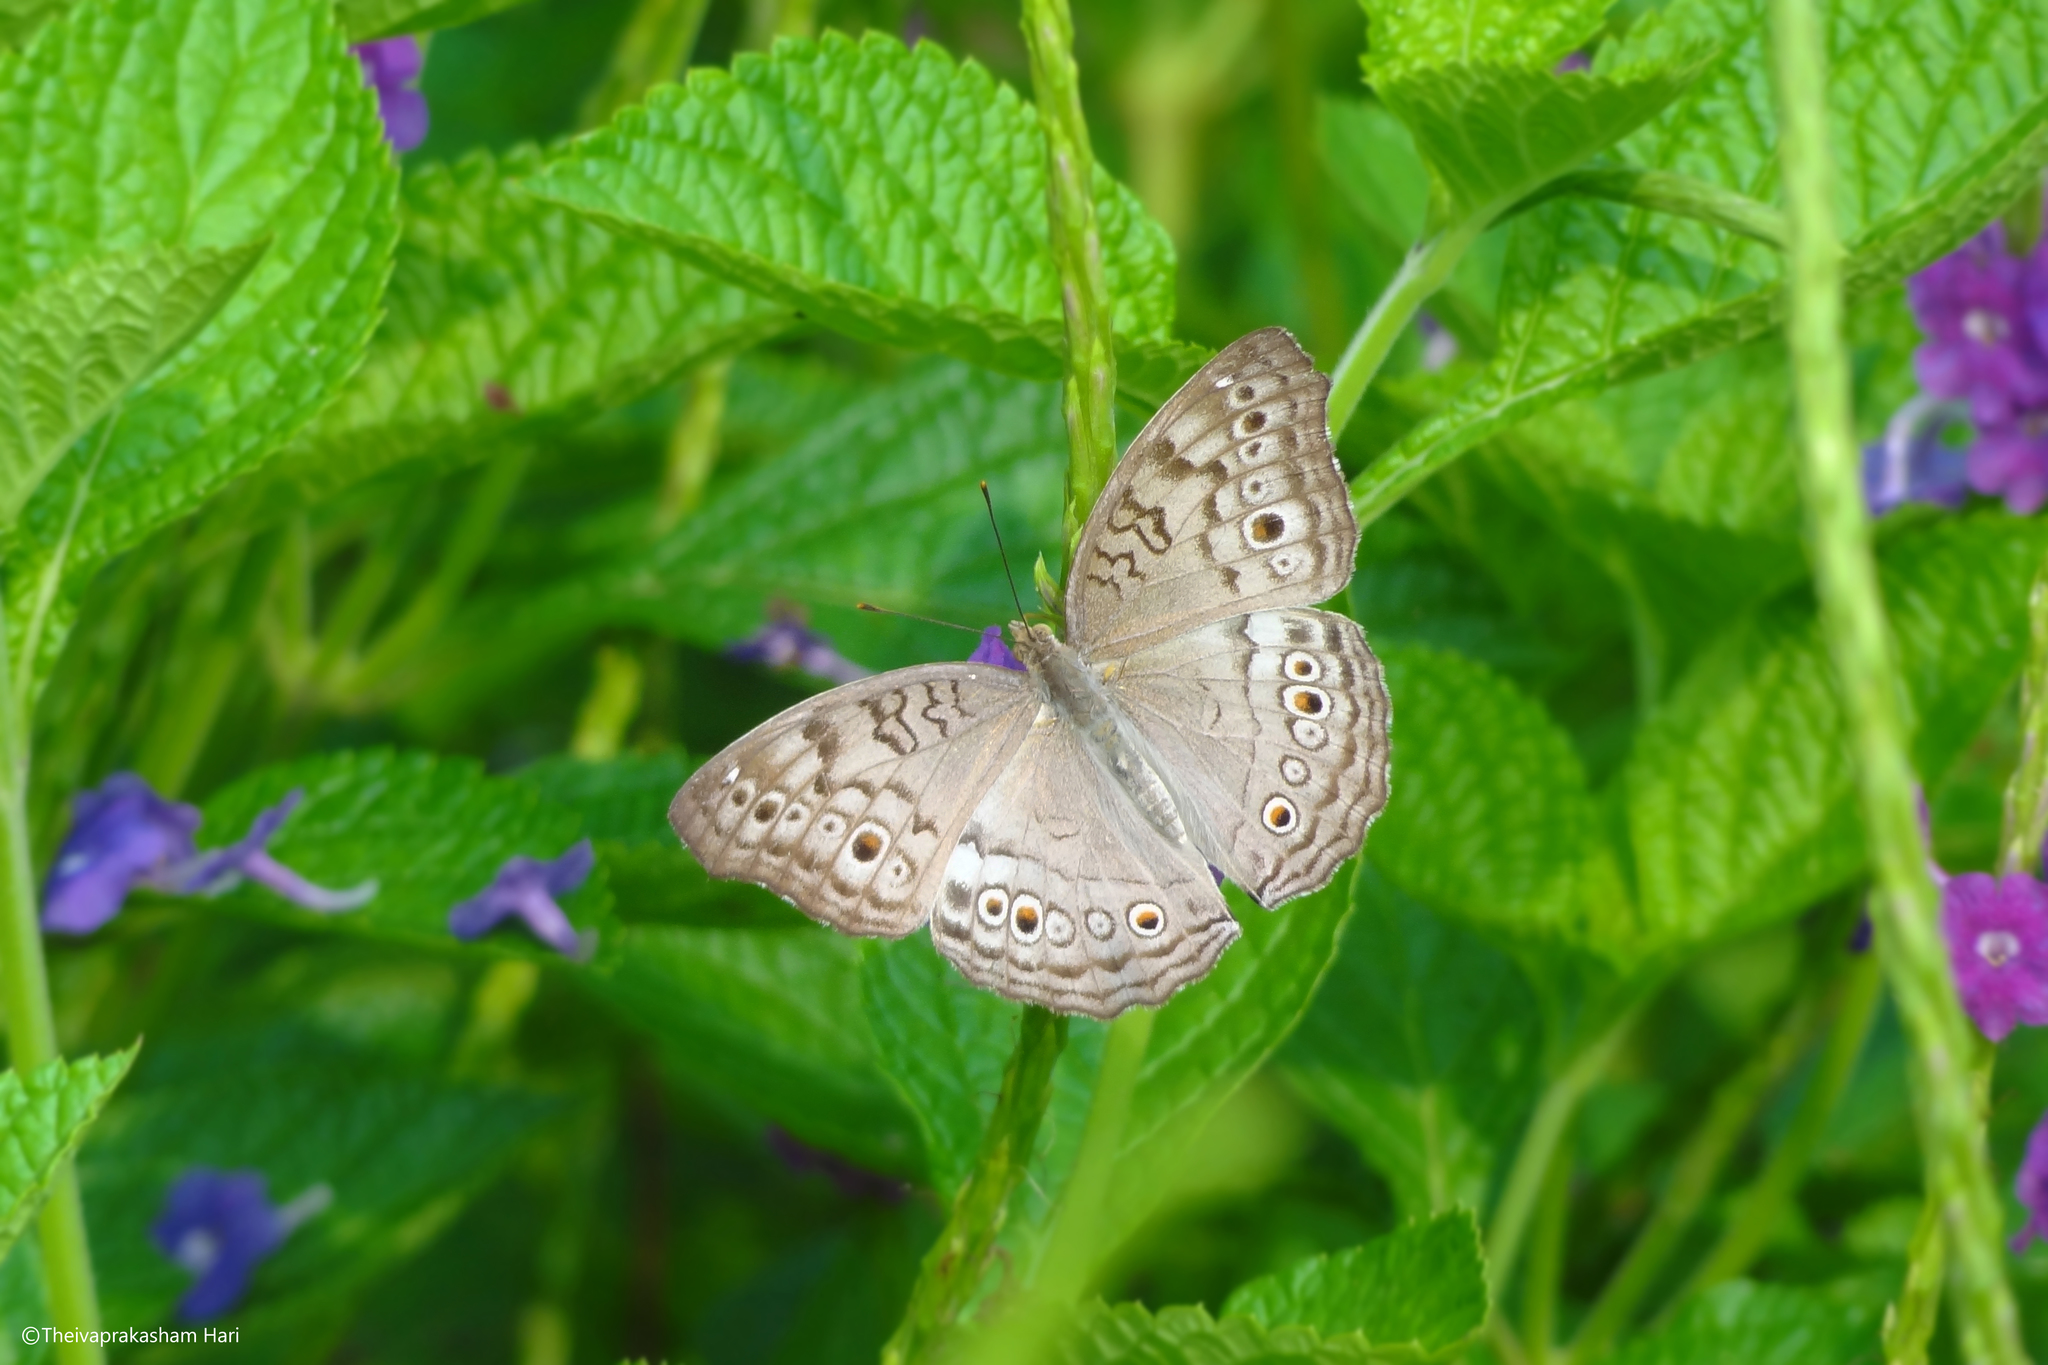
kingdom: Animalia
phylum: Arthropoda
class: Insecta
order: Lepidoptera
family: Nymphalidae
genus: Junonia
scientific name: Junonia atlites
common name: Grey pansy
